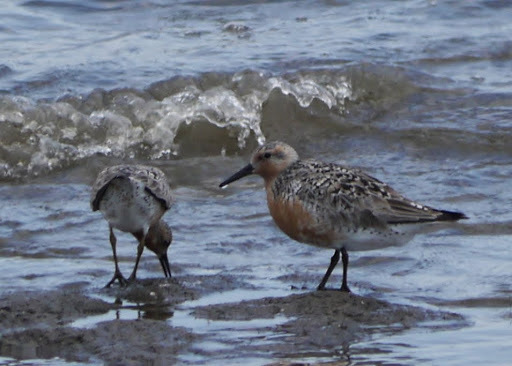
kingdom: Animalia
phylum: Chordata
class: Aves
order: Charadriiformes
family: Scolopacidae
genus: Calidris
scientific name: Calidris canutus
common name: Red knot
